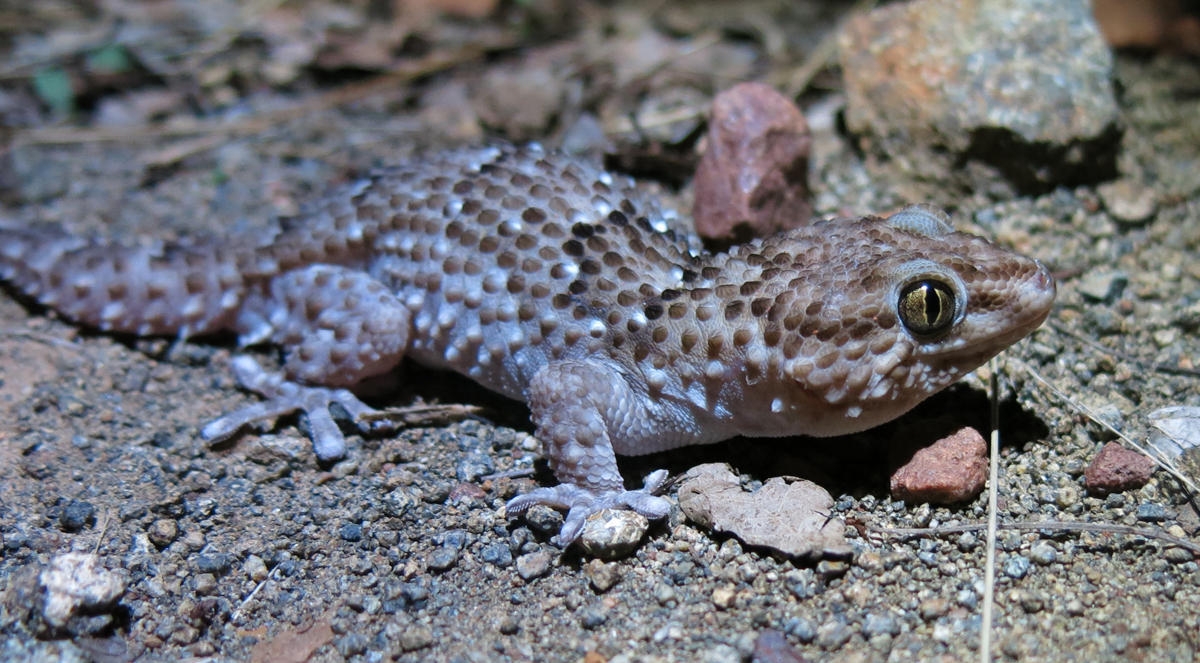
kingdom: Animalia
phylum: Chordata
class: Squamata
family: Gekkonidae
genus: Chondrodactylus
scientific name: Chondrodactylus turneri
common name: Turner’s gecko
